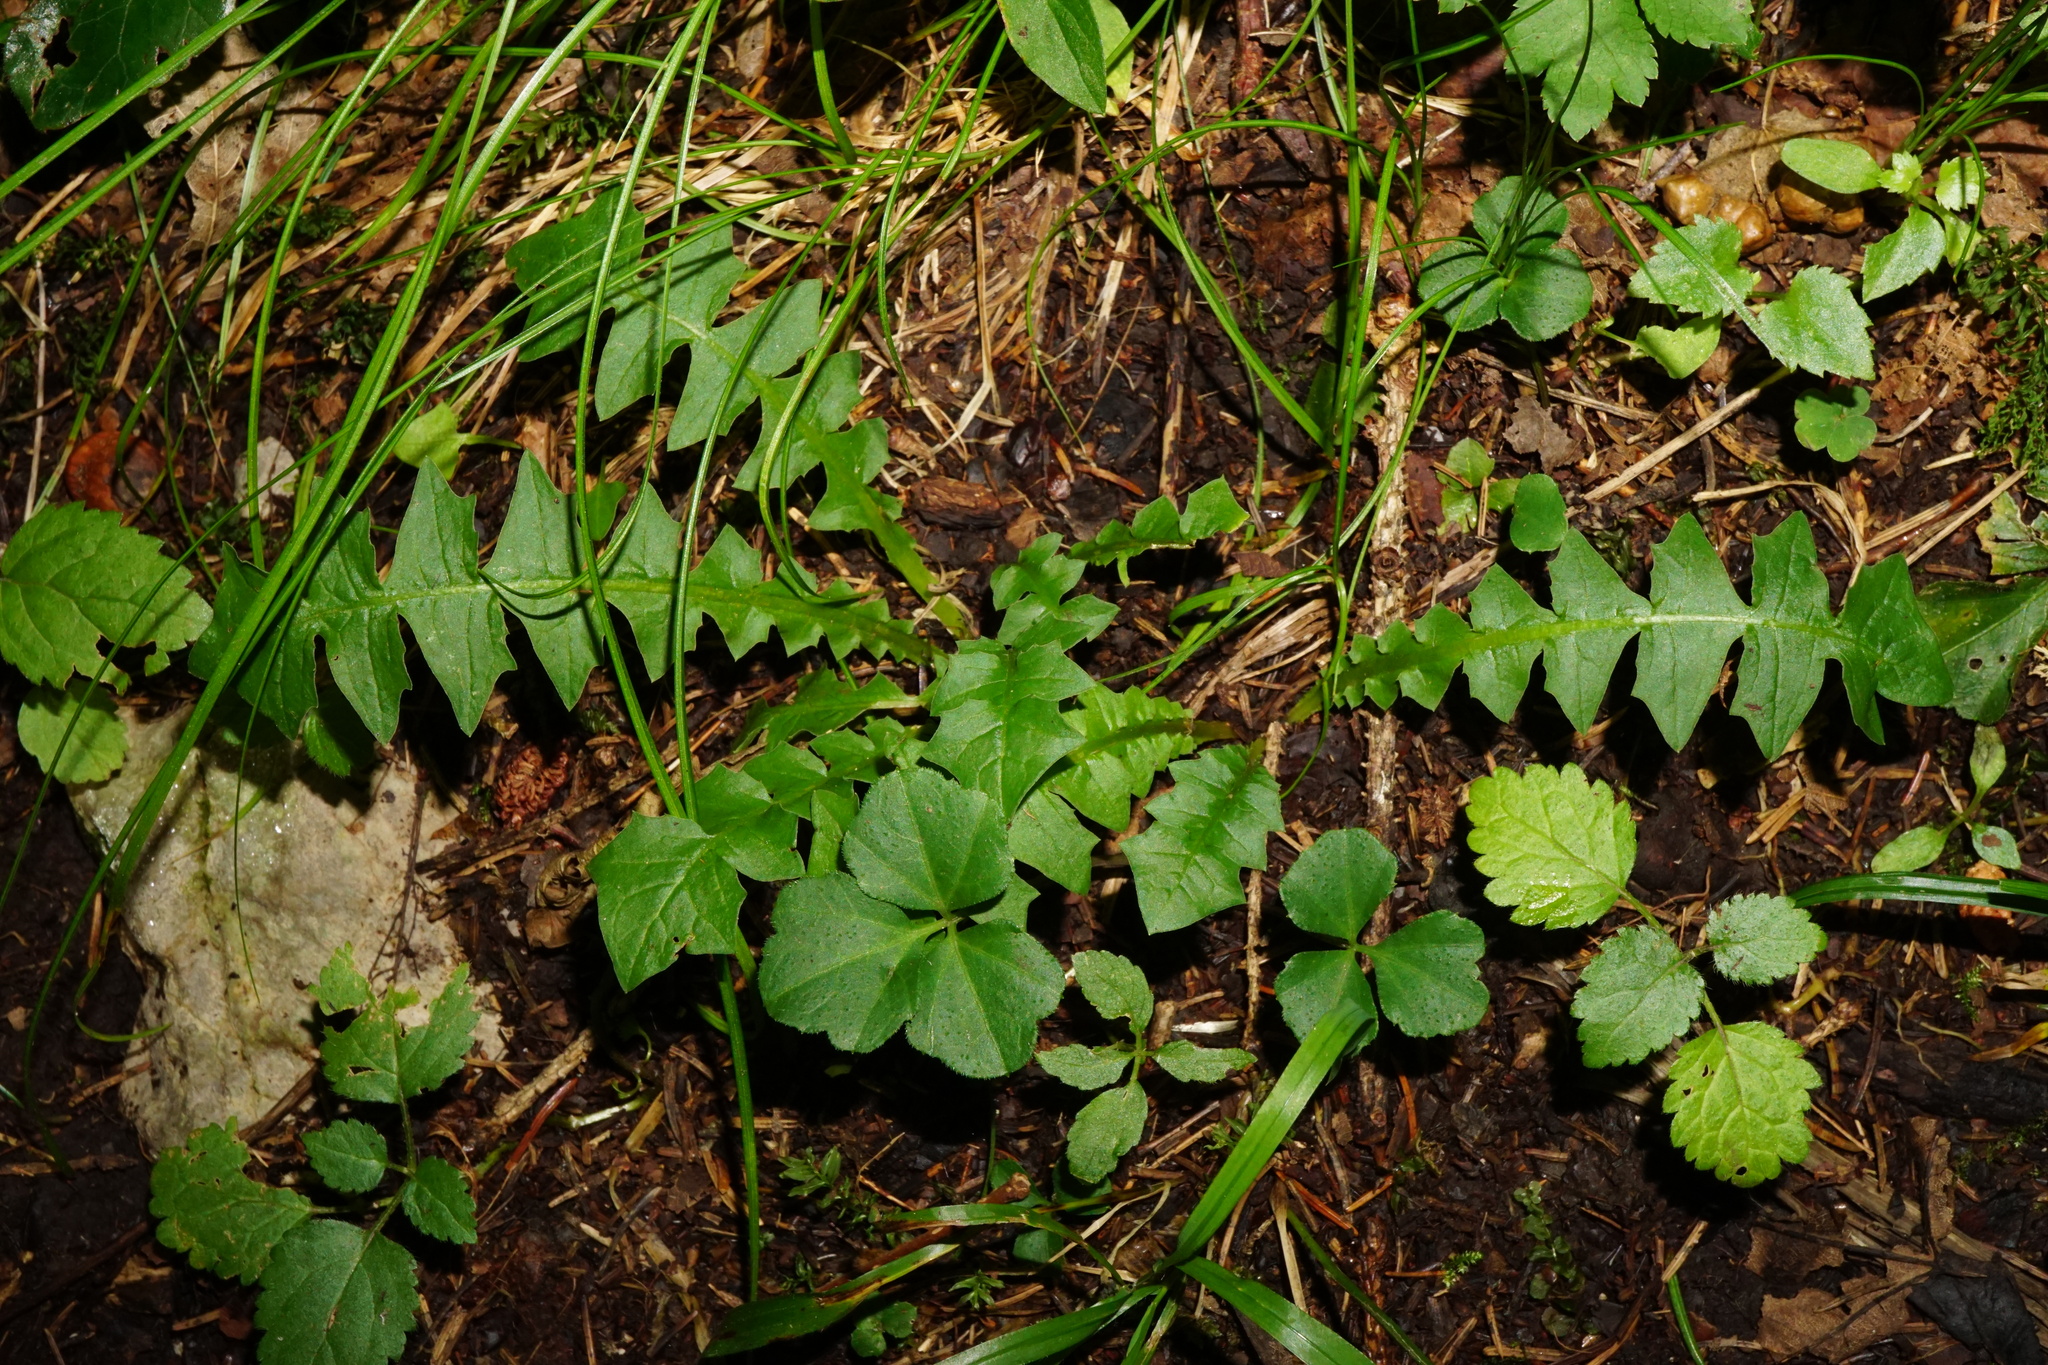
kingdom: Plantae
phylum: Tracheophyta
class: Magnoliopsida
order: Asterales
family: Asteraceae
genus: Aposeris
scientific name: Aposeris foetida
